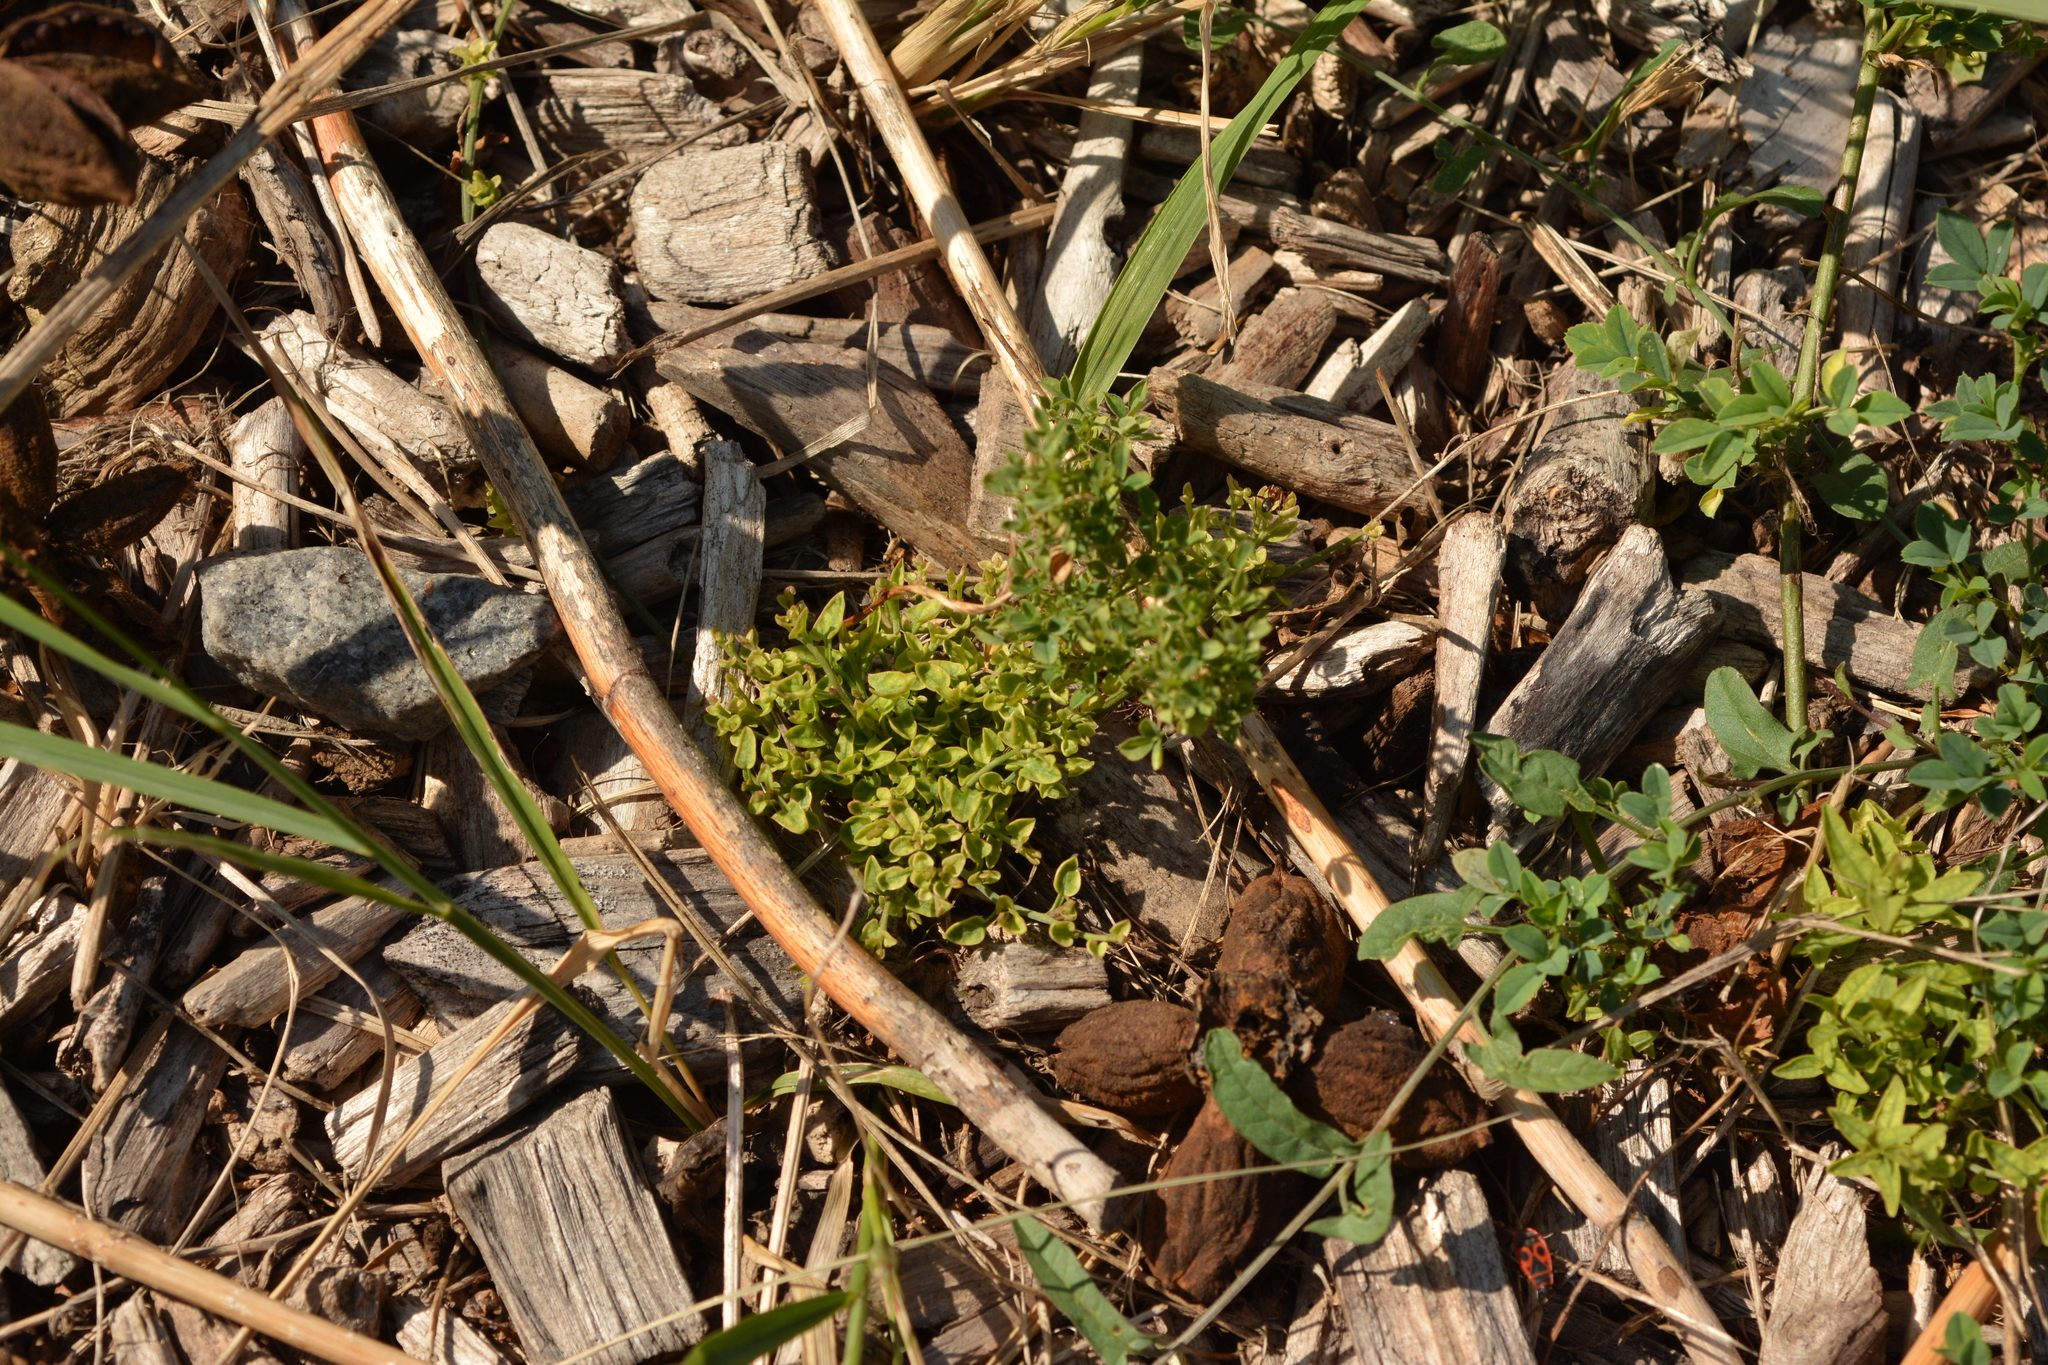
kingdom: Plantae
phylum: Tracheophyta
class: Magnoliopsida
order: Solanales
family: Convolvulaceae
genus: Convolvulus
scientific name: Convolvulus arvensis
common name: Field bindweed
